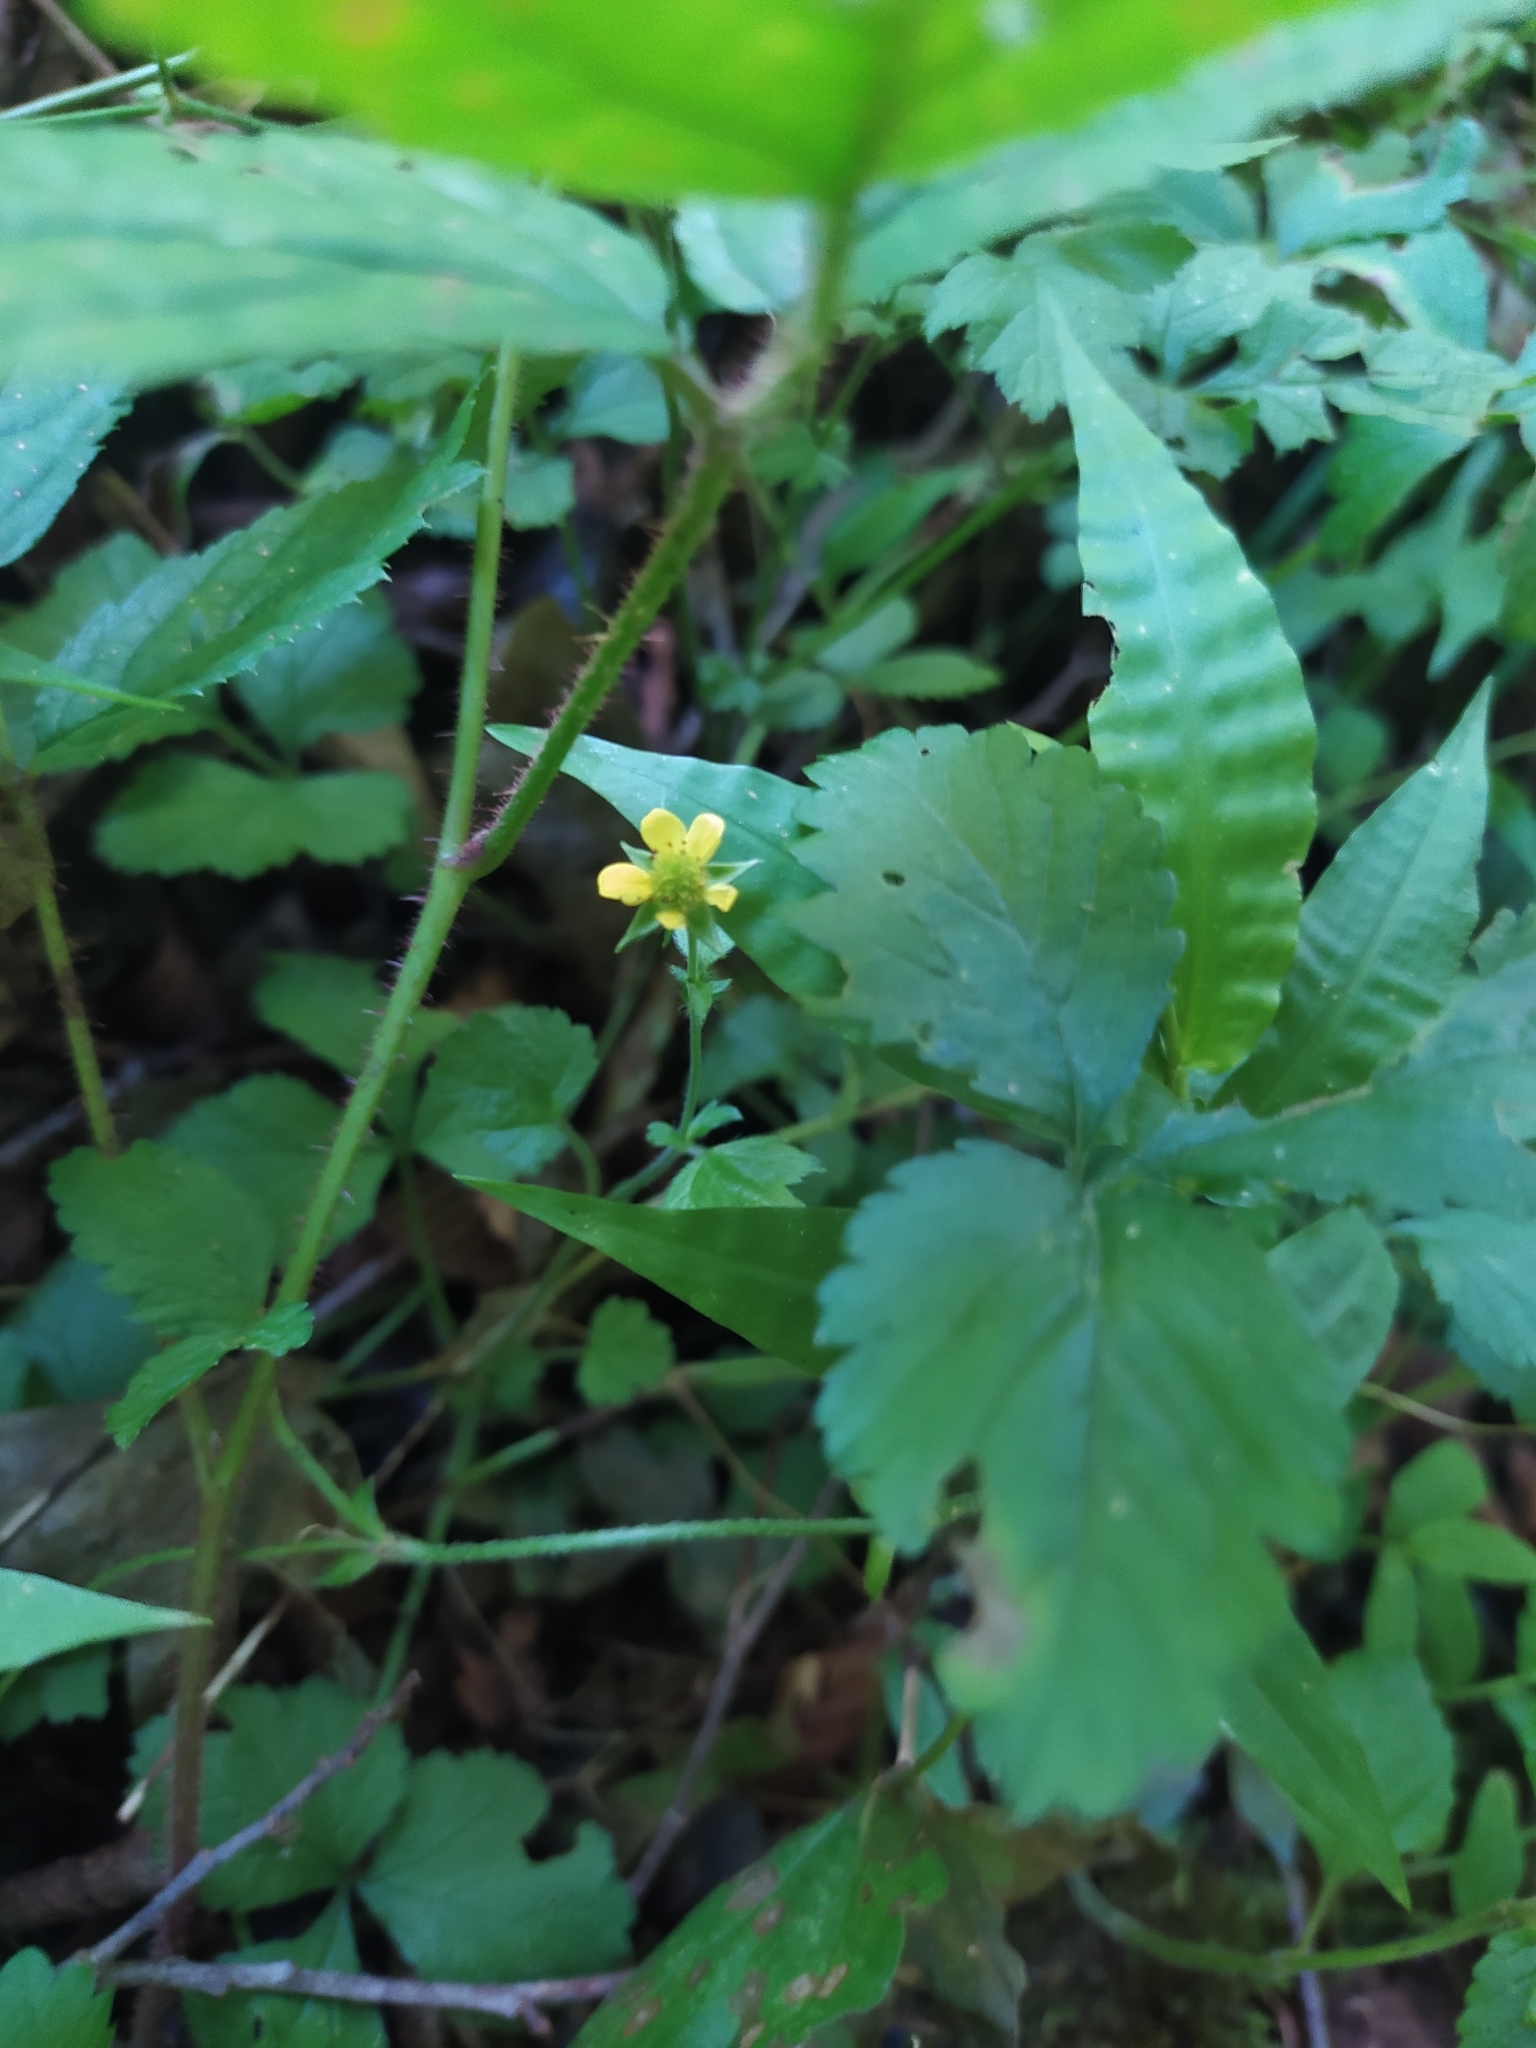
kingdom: Plantae
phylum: Tracheophyta
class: Magnoliopsida
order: Rosales
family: Rosaceae
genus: Geum
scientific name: Geum urbanum
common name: Wood avens
